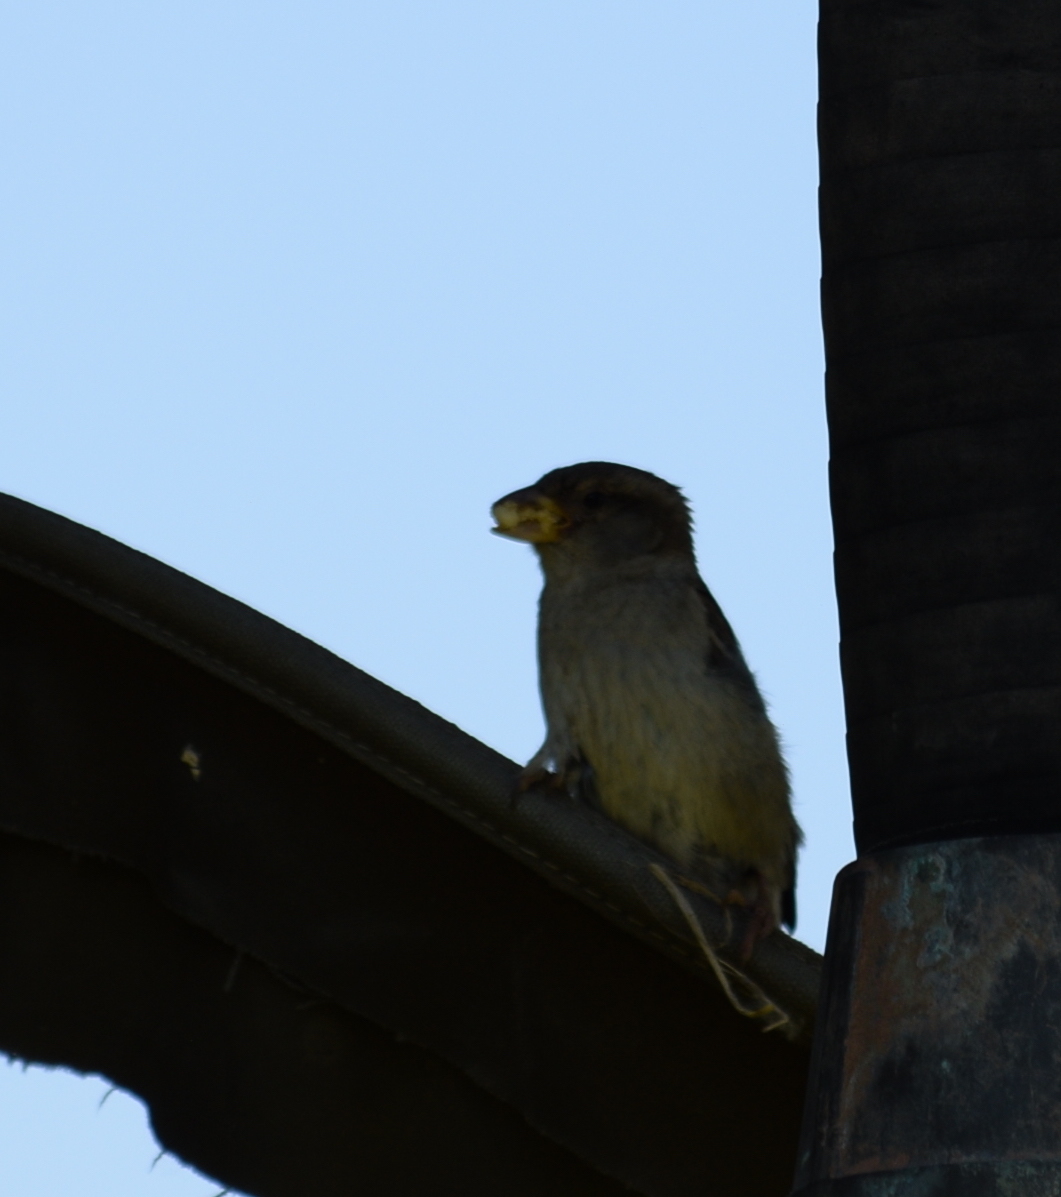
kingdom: Animalia
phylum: Chordata
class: Aves
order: Passeriformes
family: Passeridae
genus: Passer
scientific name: Passer domesticus
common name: House sparrow
